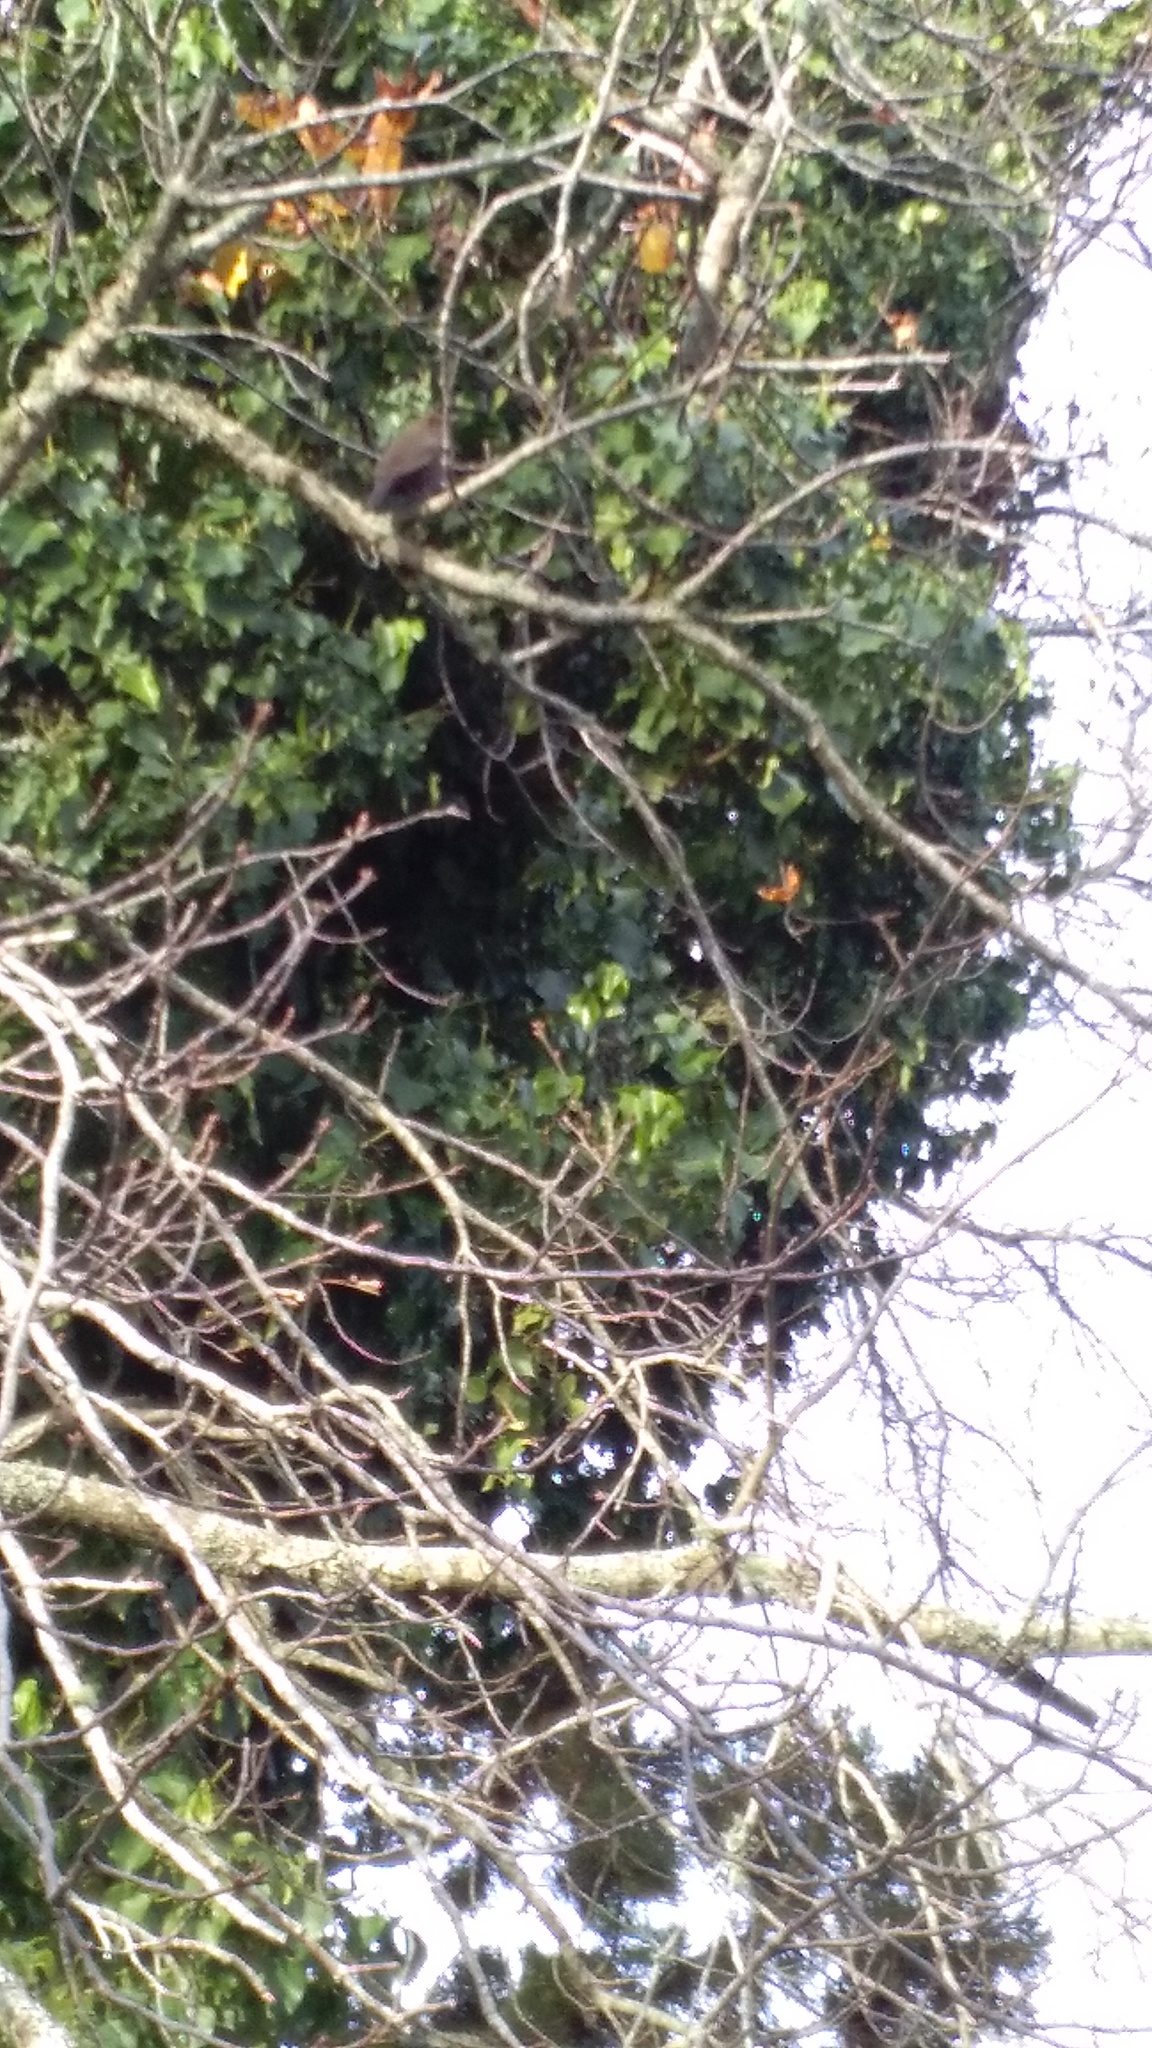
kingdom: Plantae
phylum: Tracheophyta
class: Magnoliopsida
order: Apiales
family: Araliaceae
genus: Hedera
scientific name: Hedera helix
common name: Ivy
